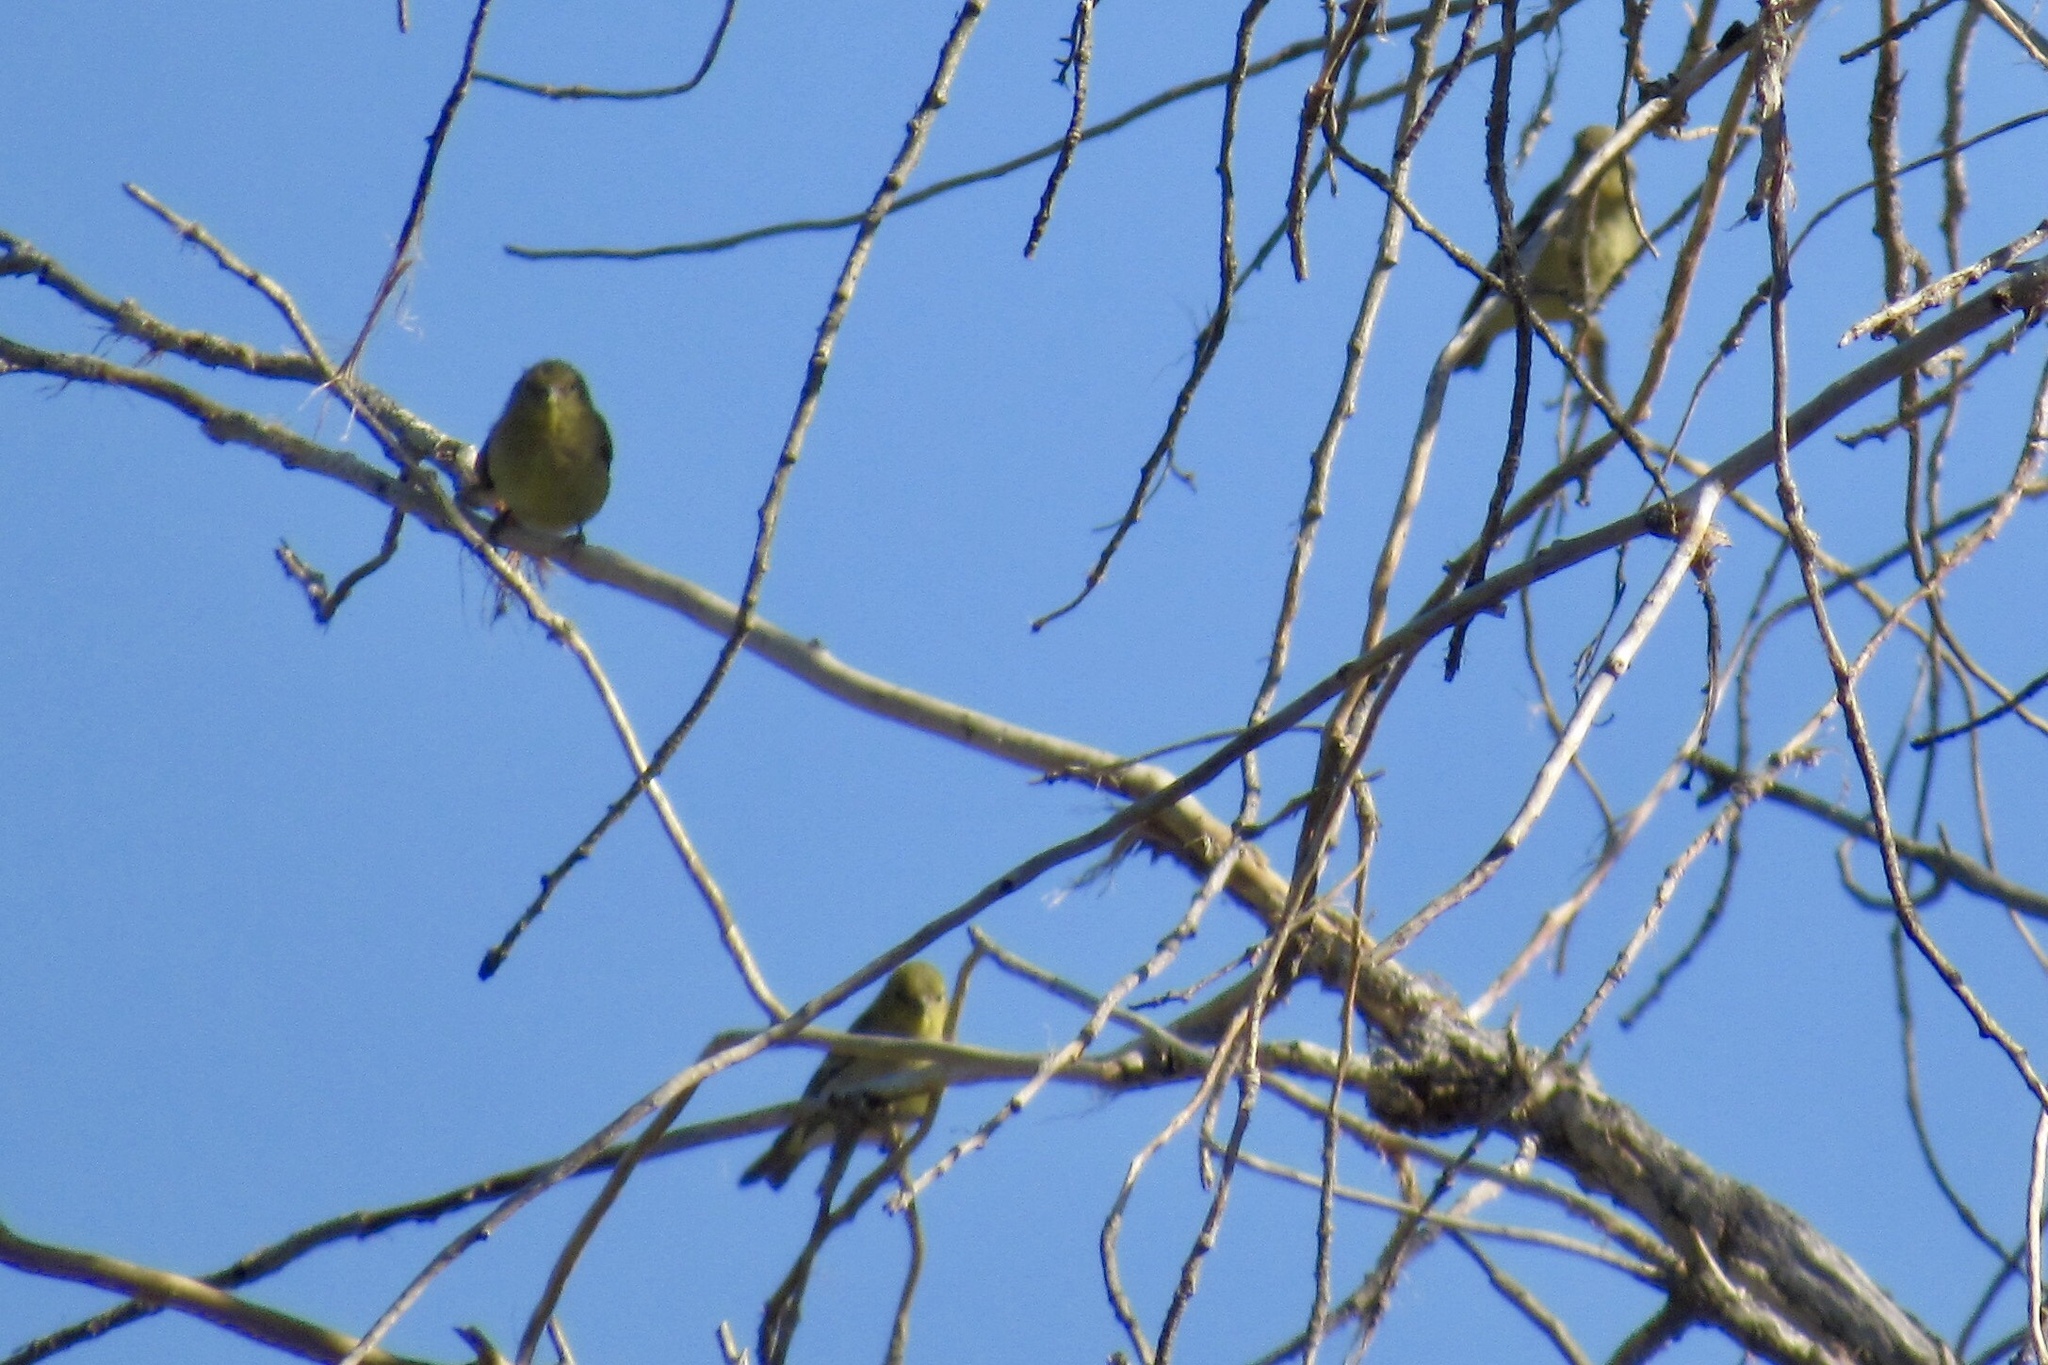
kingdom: Animalia
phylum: Chordata
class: Aves
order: Passeriformes
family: Fringillidae
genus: Spinus
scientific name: Spinus psaltria
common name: Lesser goldfinch
